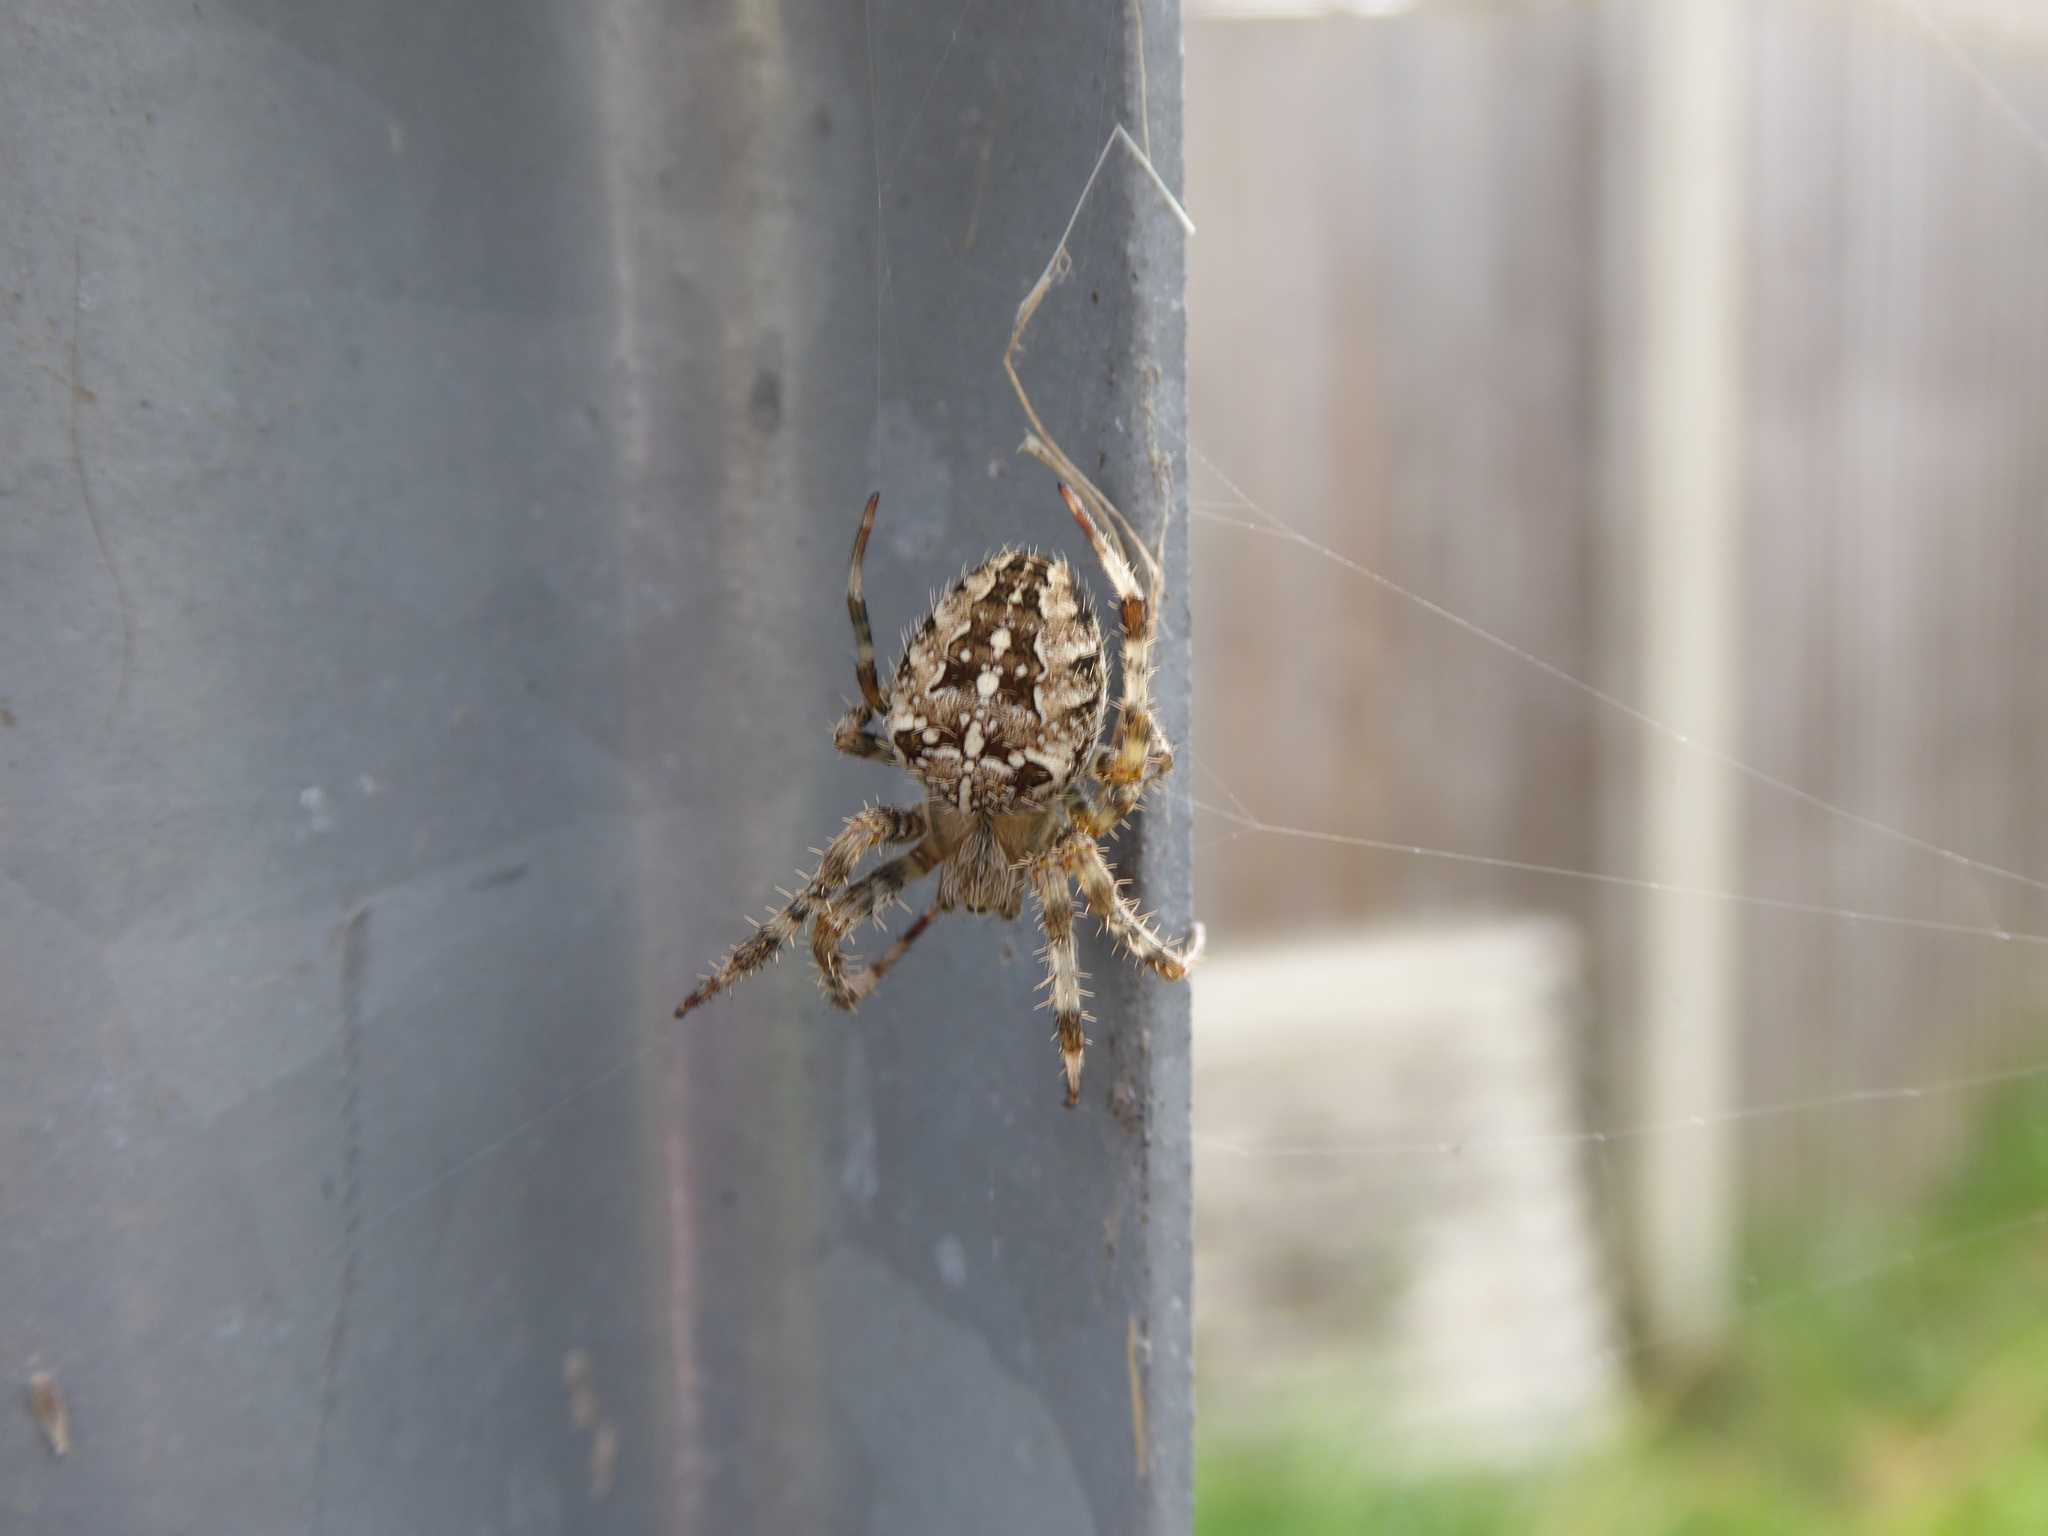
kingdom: Animalia
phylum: Arthropoda
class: Arachnida
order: Araneae
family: Araneidae
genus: Araneus
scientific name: Araneus diadematus
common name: Cross orbweaver
